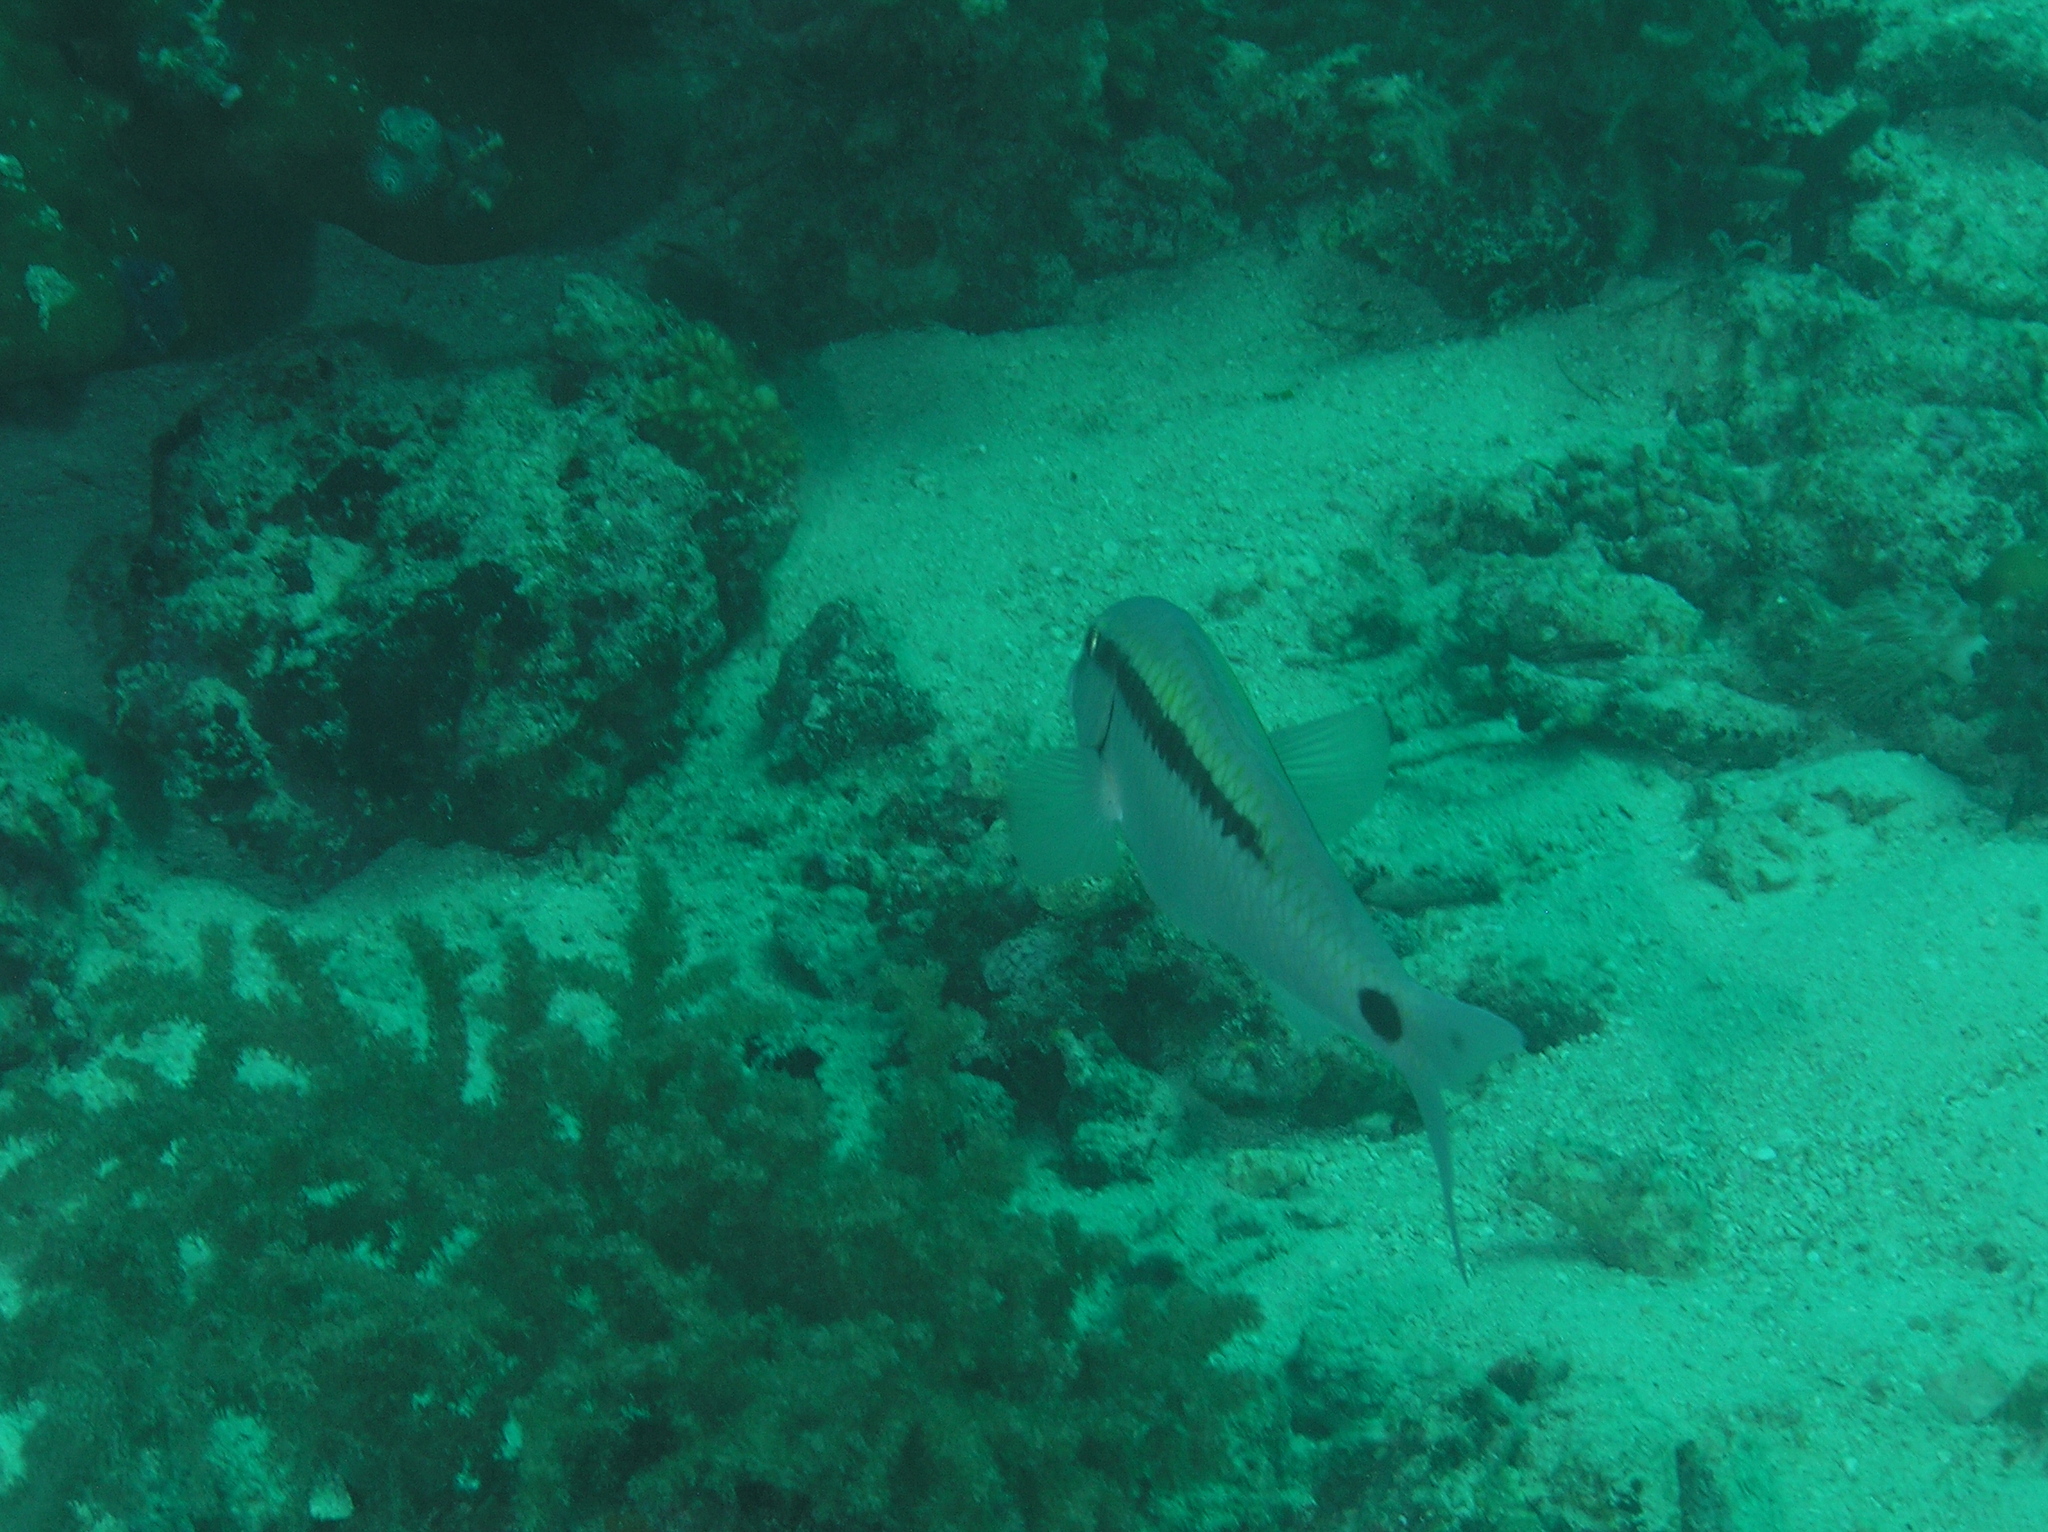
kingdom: Animalia
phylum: Chordata
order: Perciformes
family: Mullidae
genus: Parupeneus
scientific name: Parupeneus barberinus
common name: Dash-and-dot goatfish
